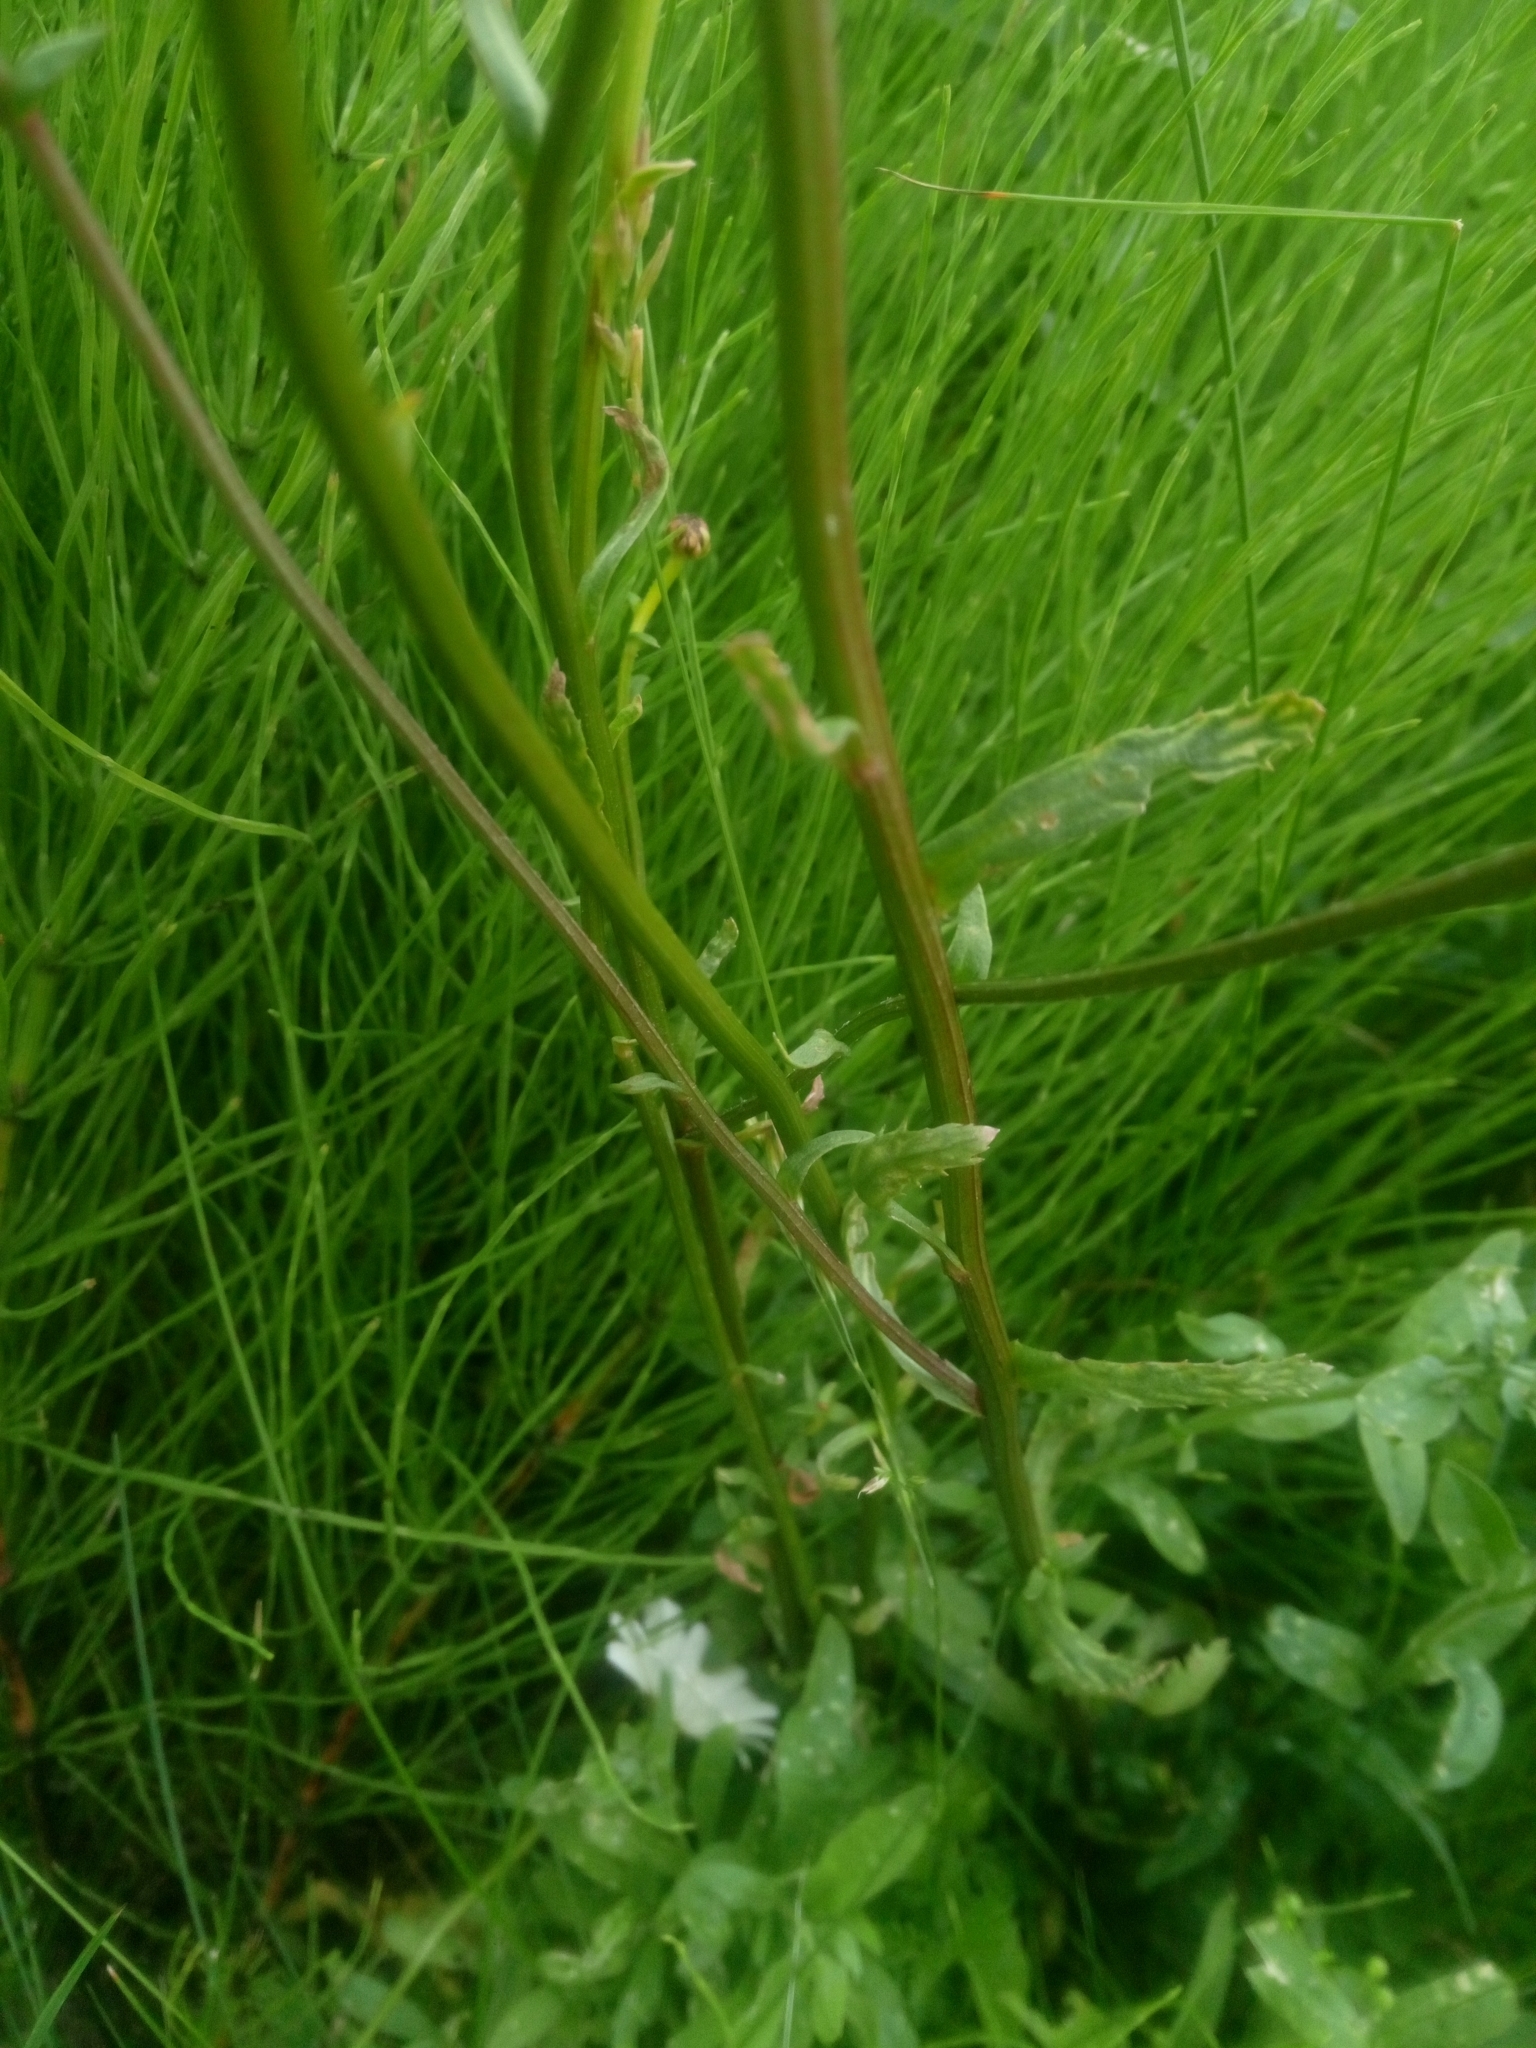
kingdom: Plantae
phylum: Tracheophyta
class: Magnoliopsida
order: Asterales
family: Asteraceae
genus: Leucanthemum
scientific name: Leucanthemum vulgare
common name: Oxeye daisy
